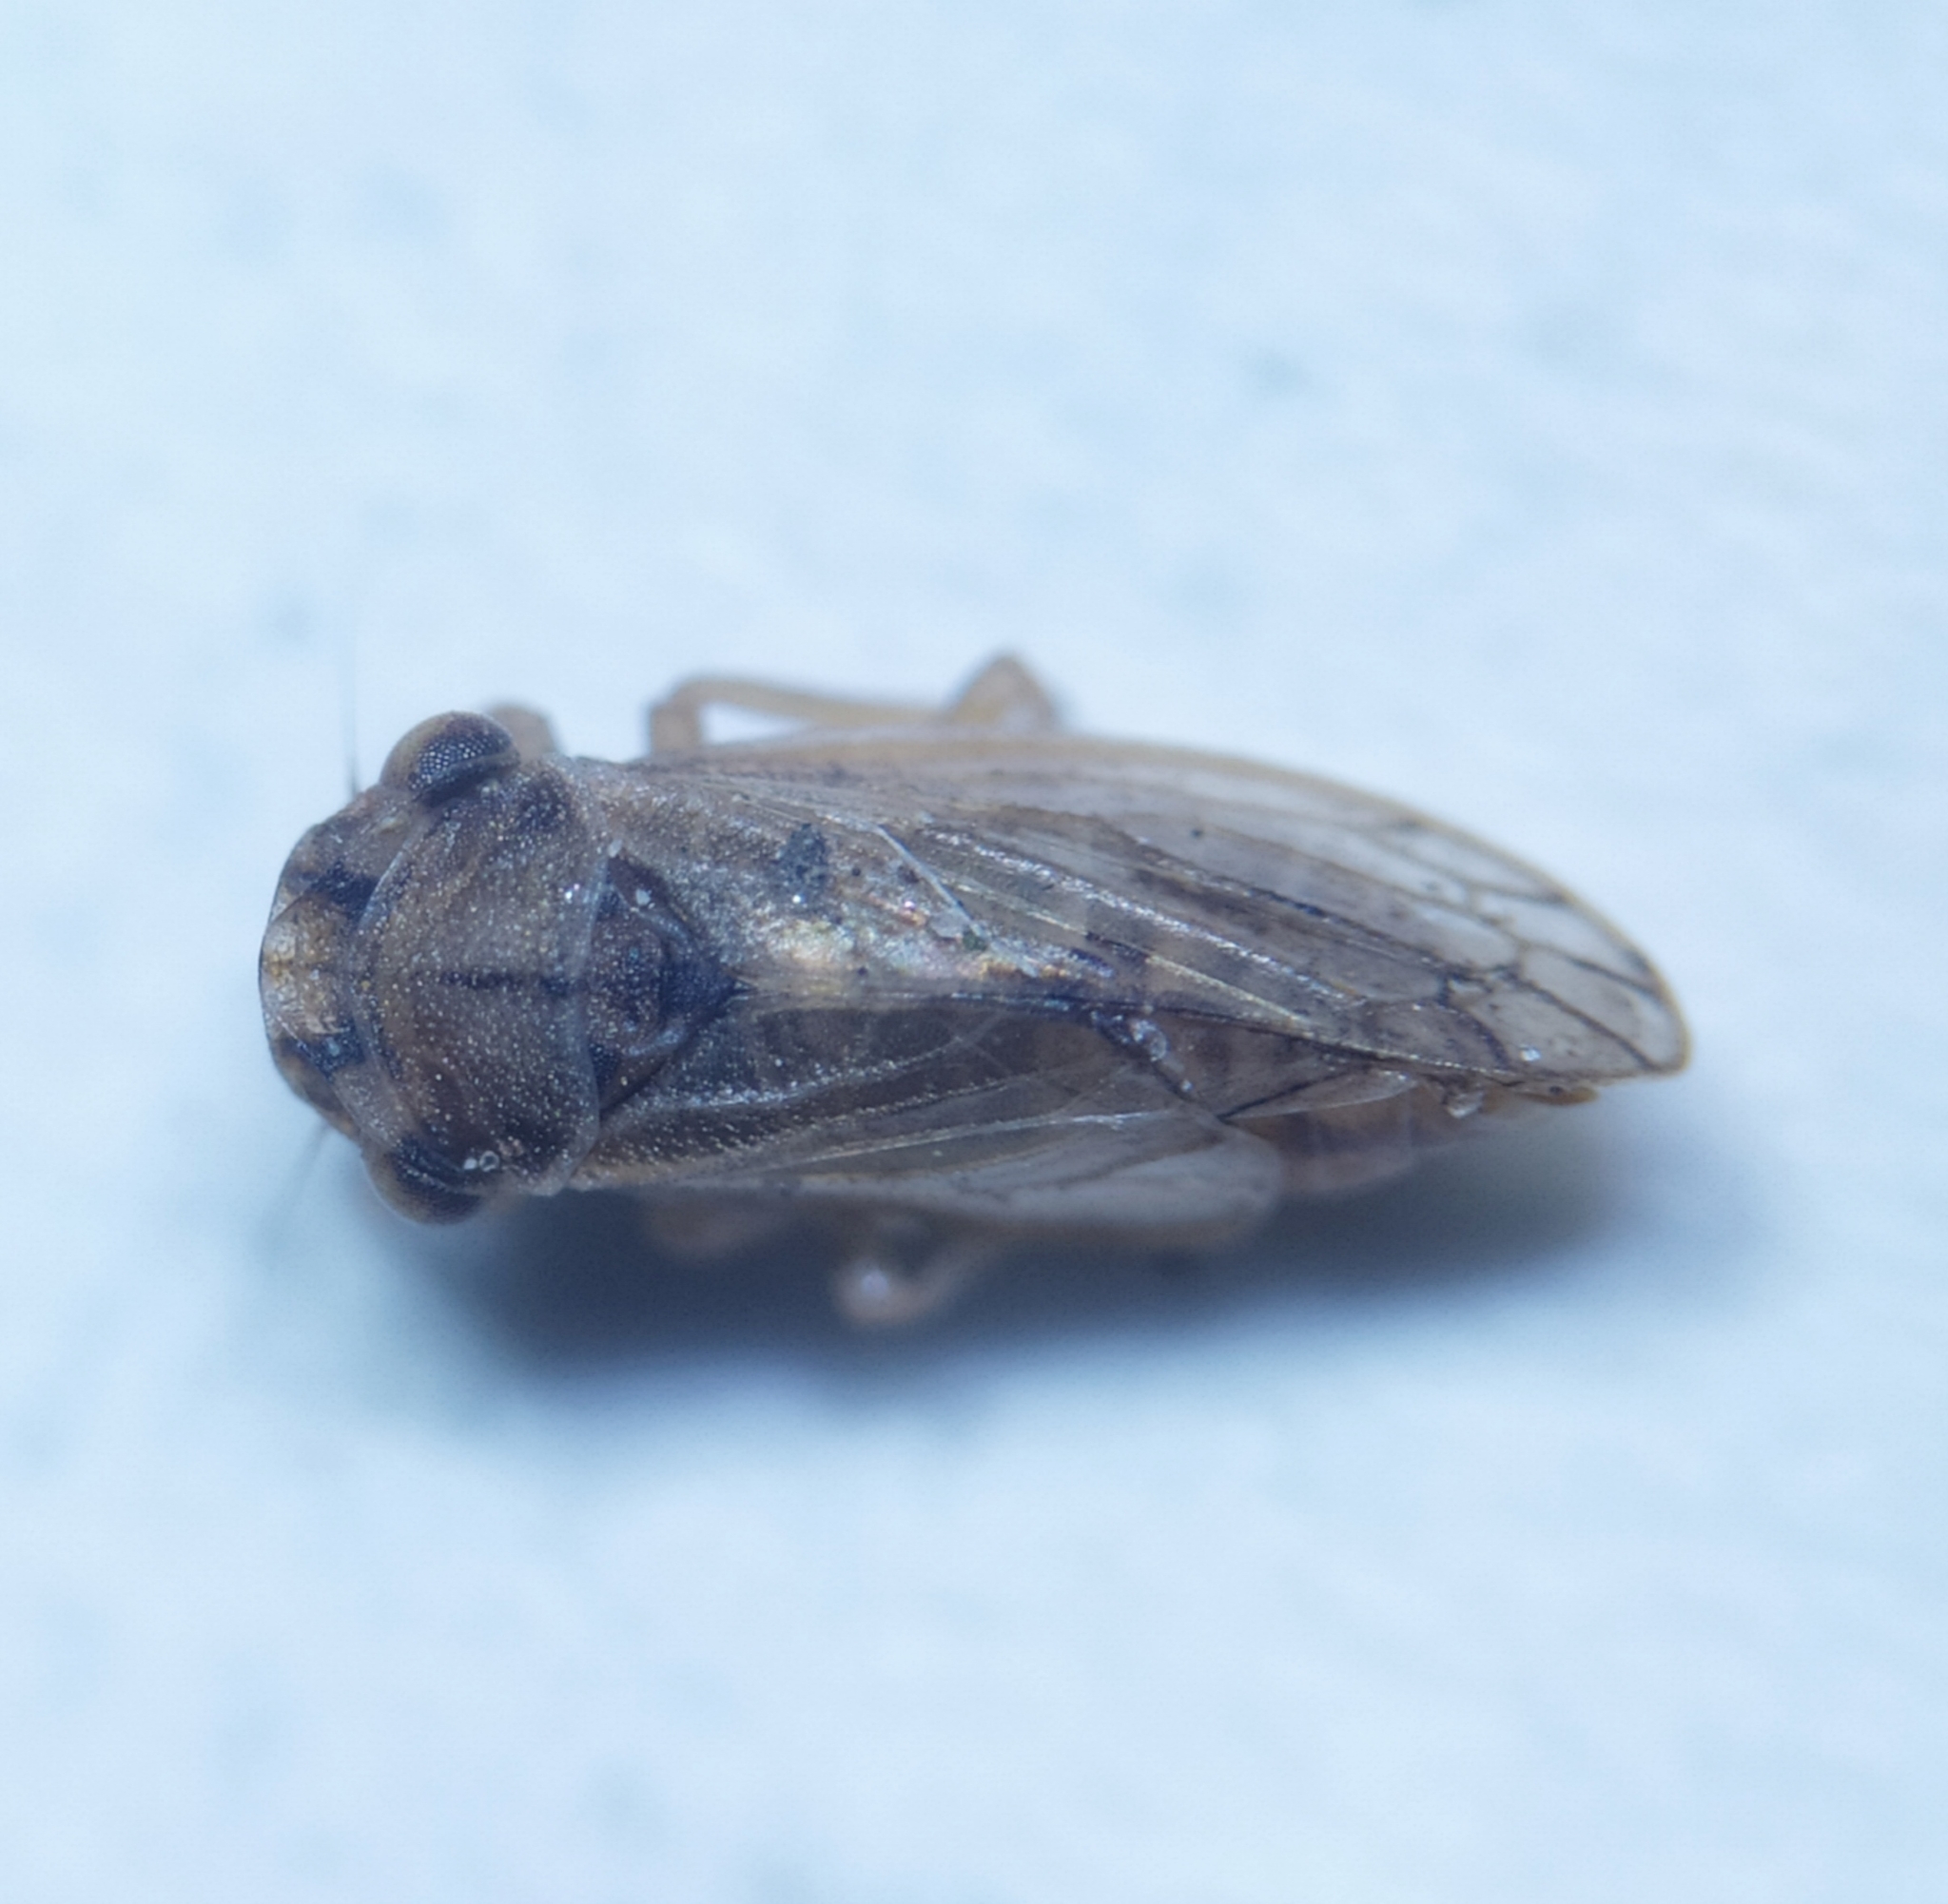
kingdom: Animalia
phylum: Arthropoda
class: Insecta
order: Hemiptera
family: Cicadellidae
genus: Megophthalmus
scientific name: Megophthalmus scanicus
